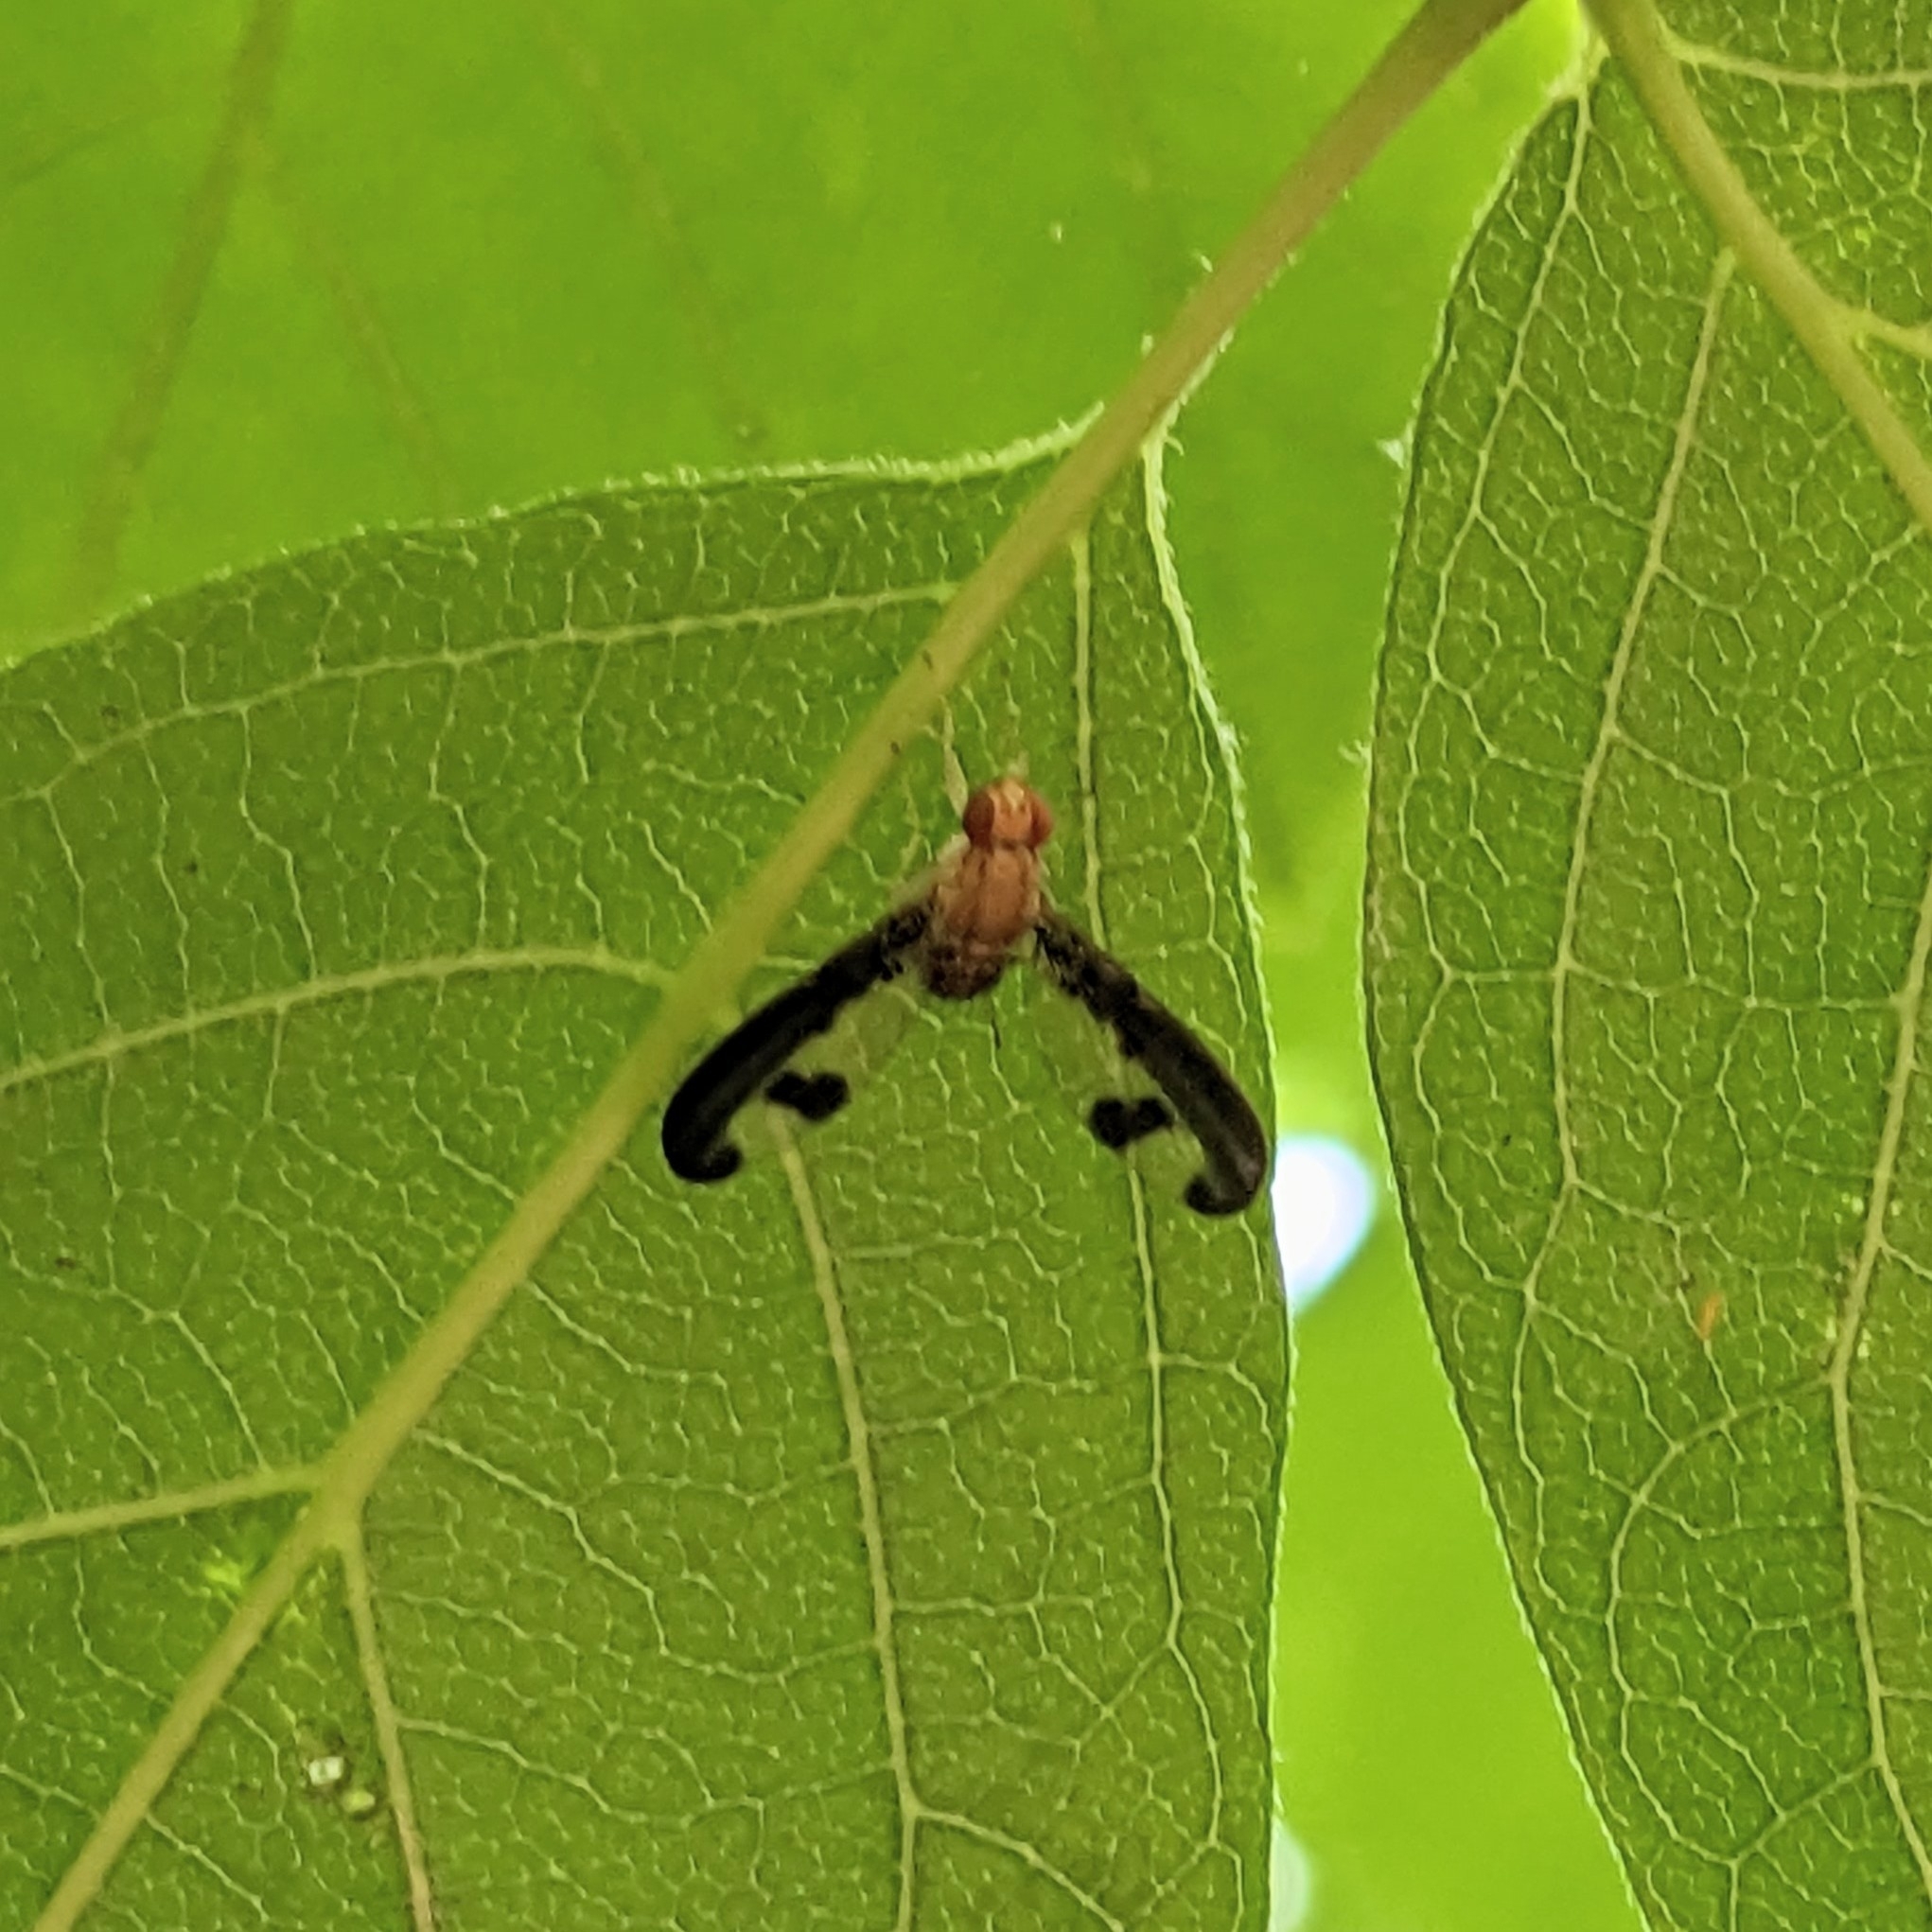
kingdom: Animalia
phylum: Arthropoda
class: Insecta
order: Diptera
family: Pallopteridae
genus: Toxonevra
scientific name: Toxonevra superba
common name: Antlered flutter fly
